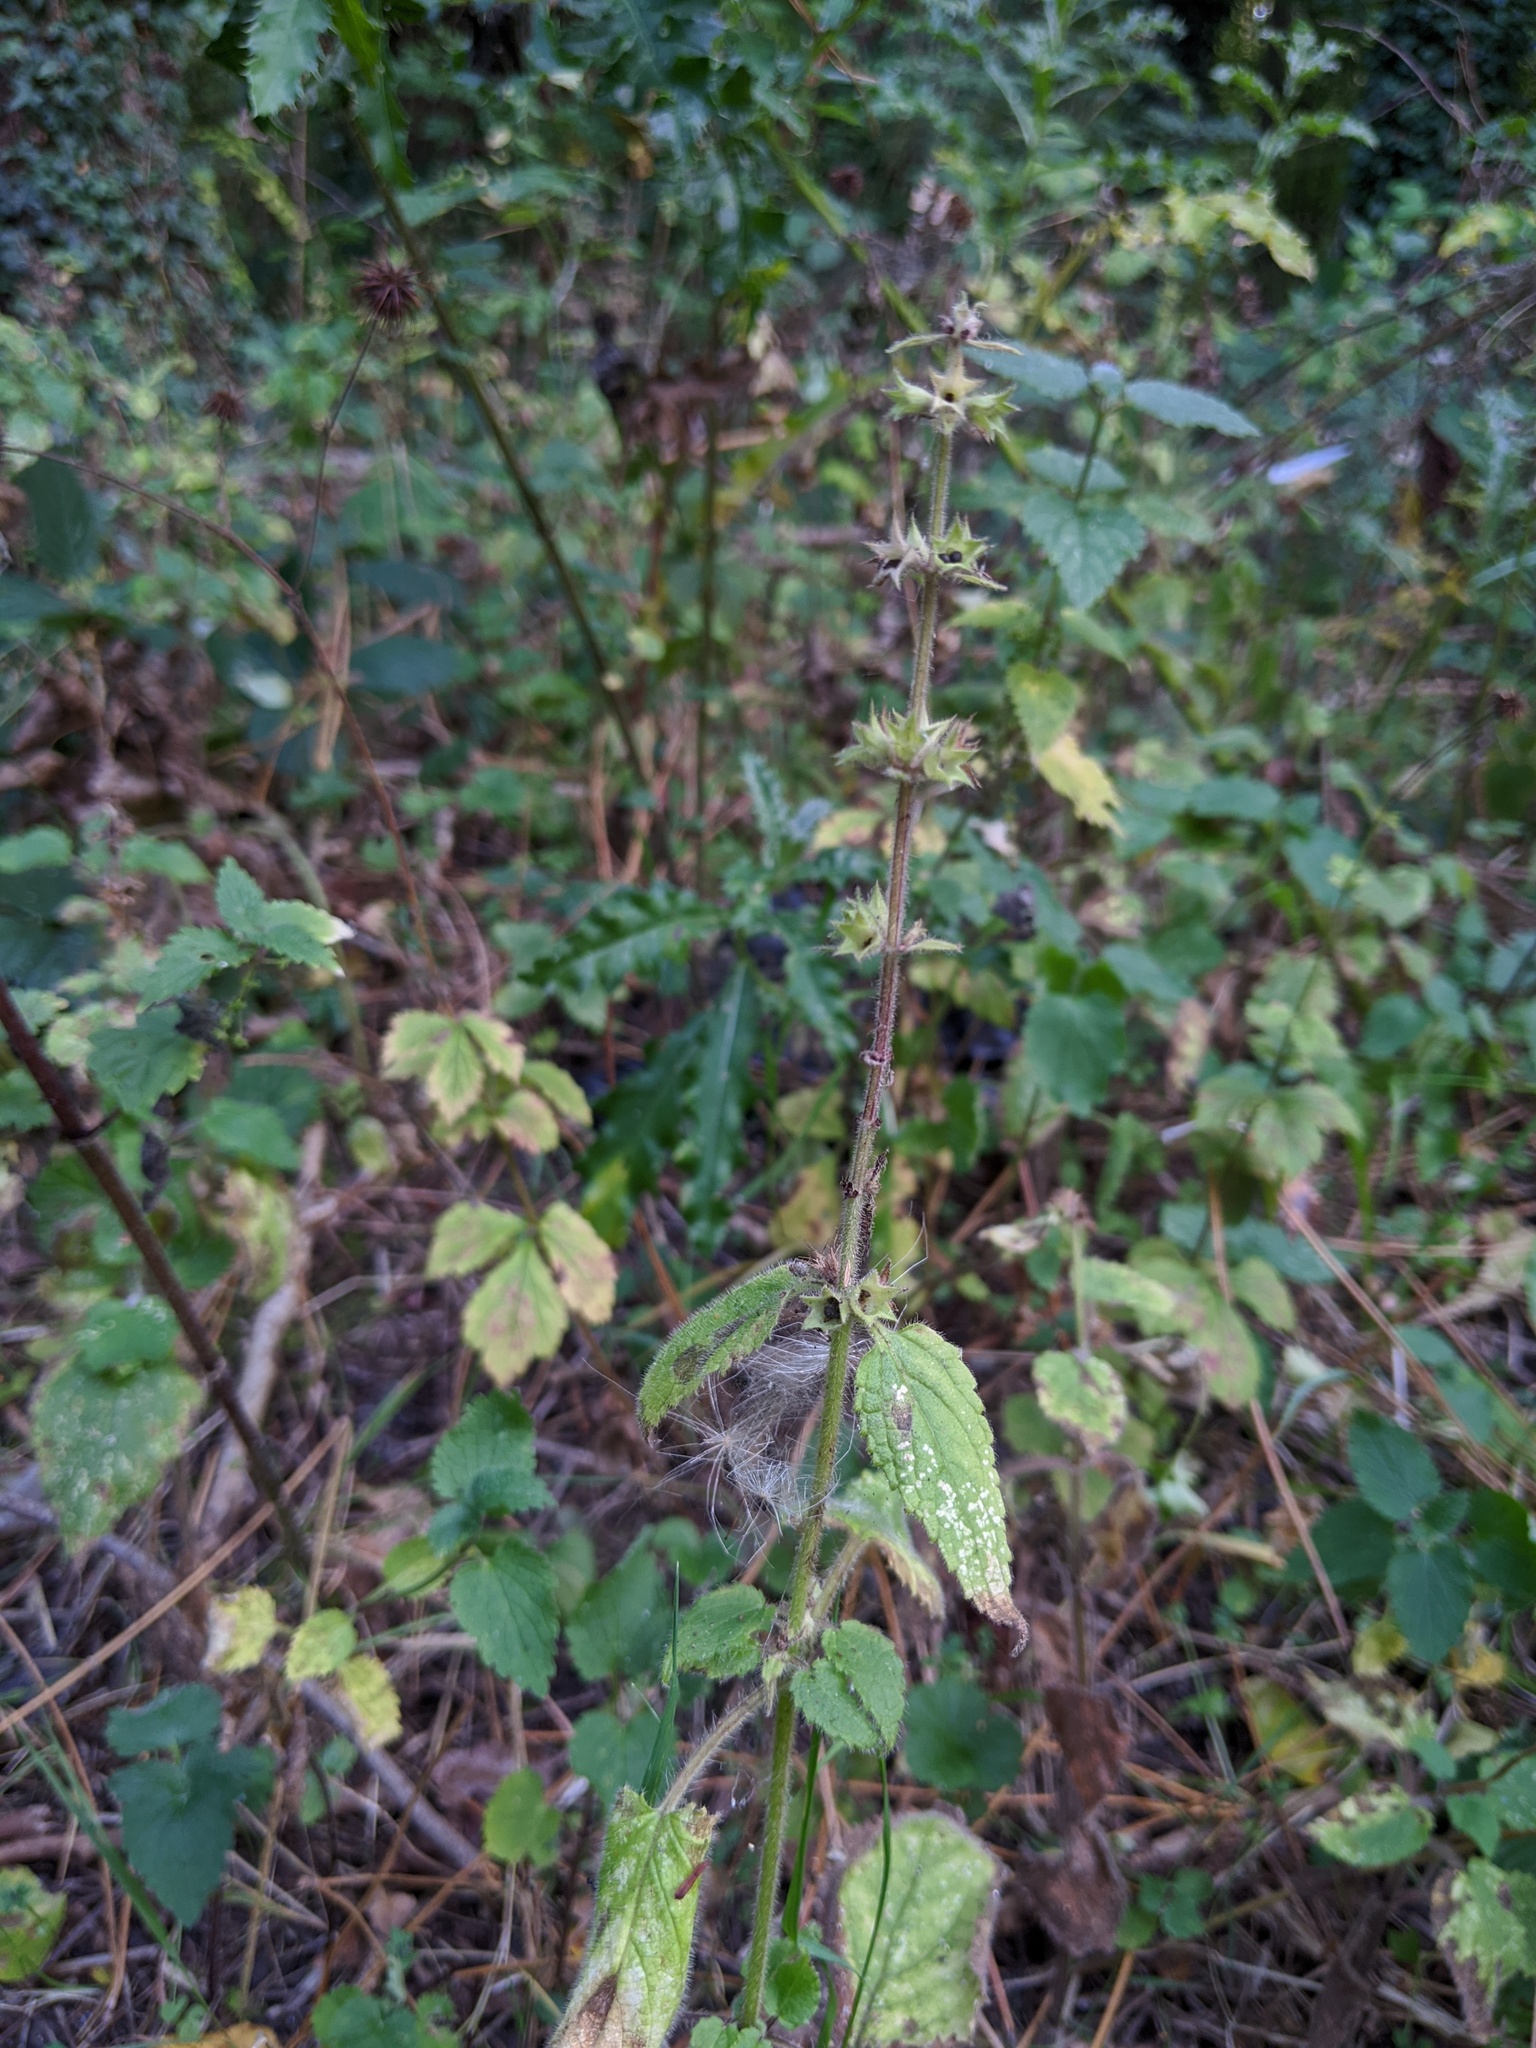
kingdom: Plantae
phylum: Tracheophyta
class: Magnoliopsida
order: Lamiales
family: Lamiaceae
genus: Stachys
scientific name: Stachys sylvatica
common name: Hedge woundwort
